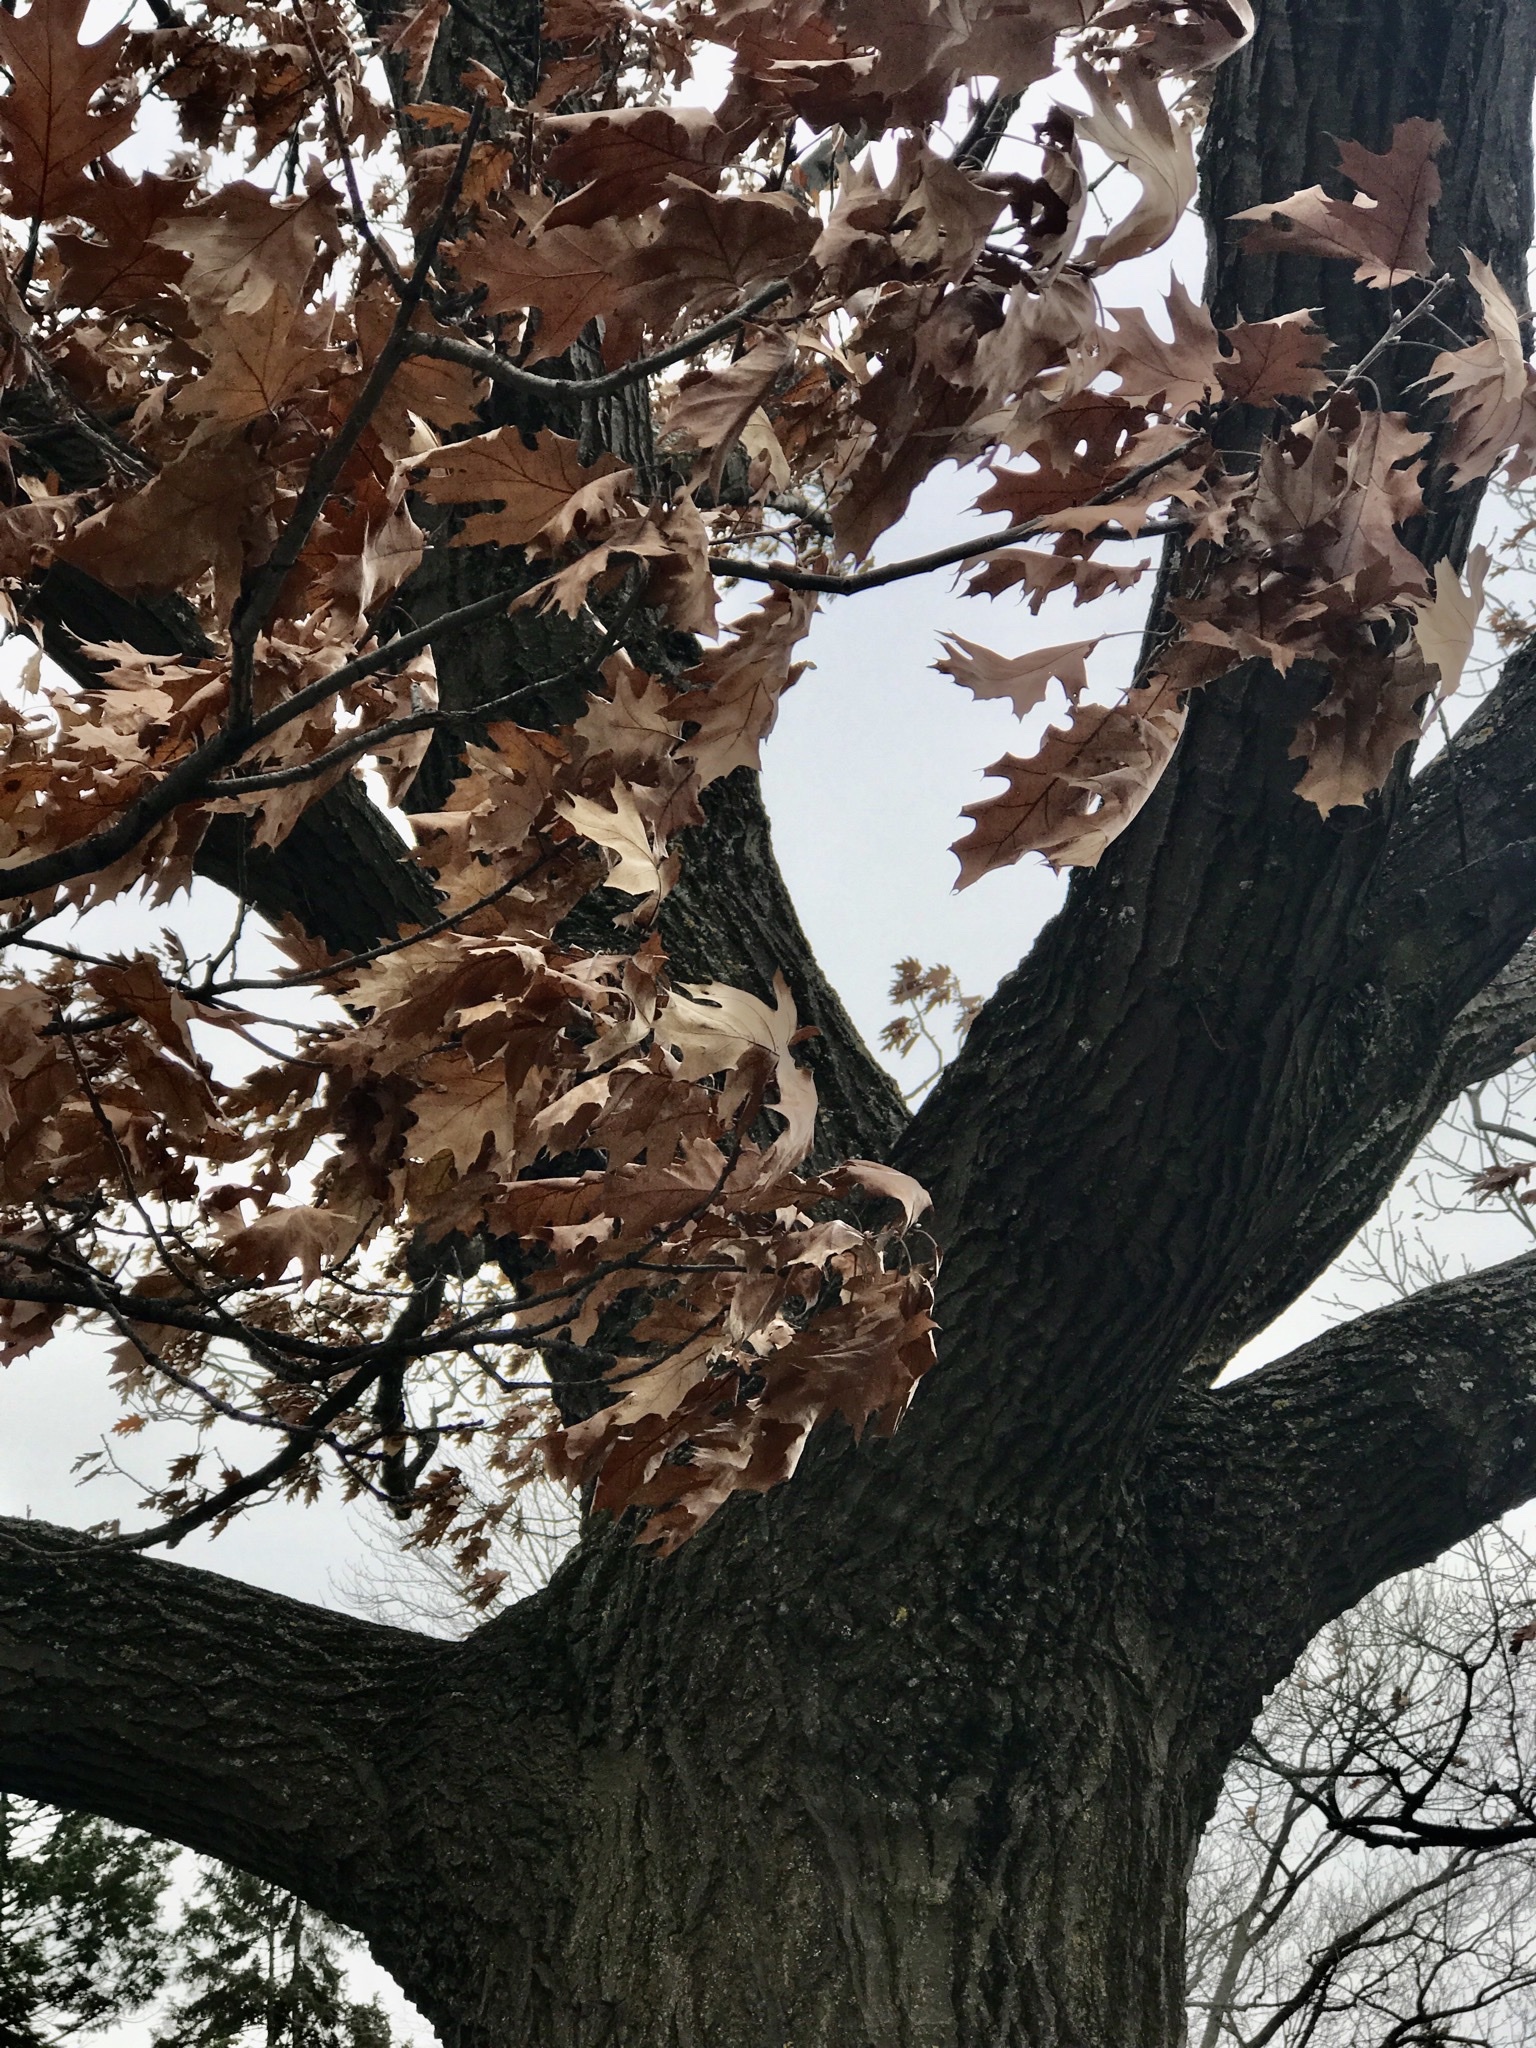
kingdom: Plantae
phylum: Tracheophyta
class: Magnoliopsida
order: Fagales
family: Fagaceae
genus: Quercus
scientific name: Quercus rubra
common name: Red oak
